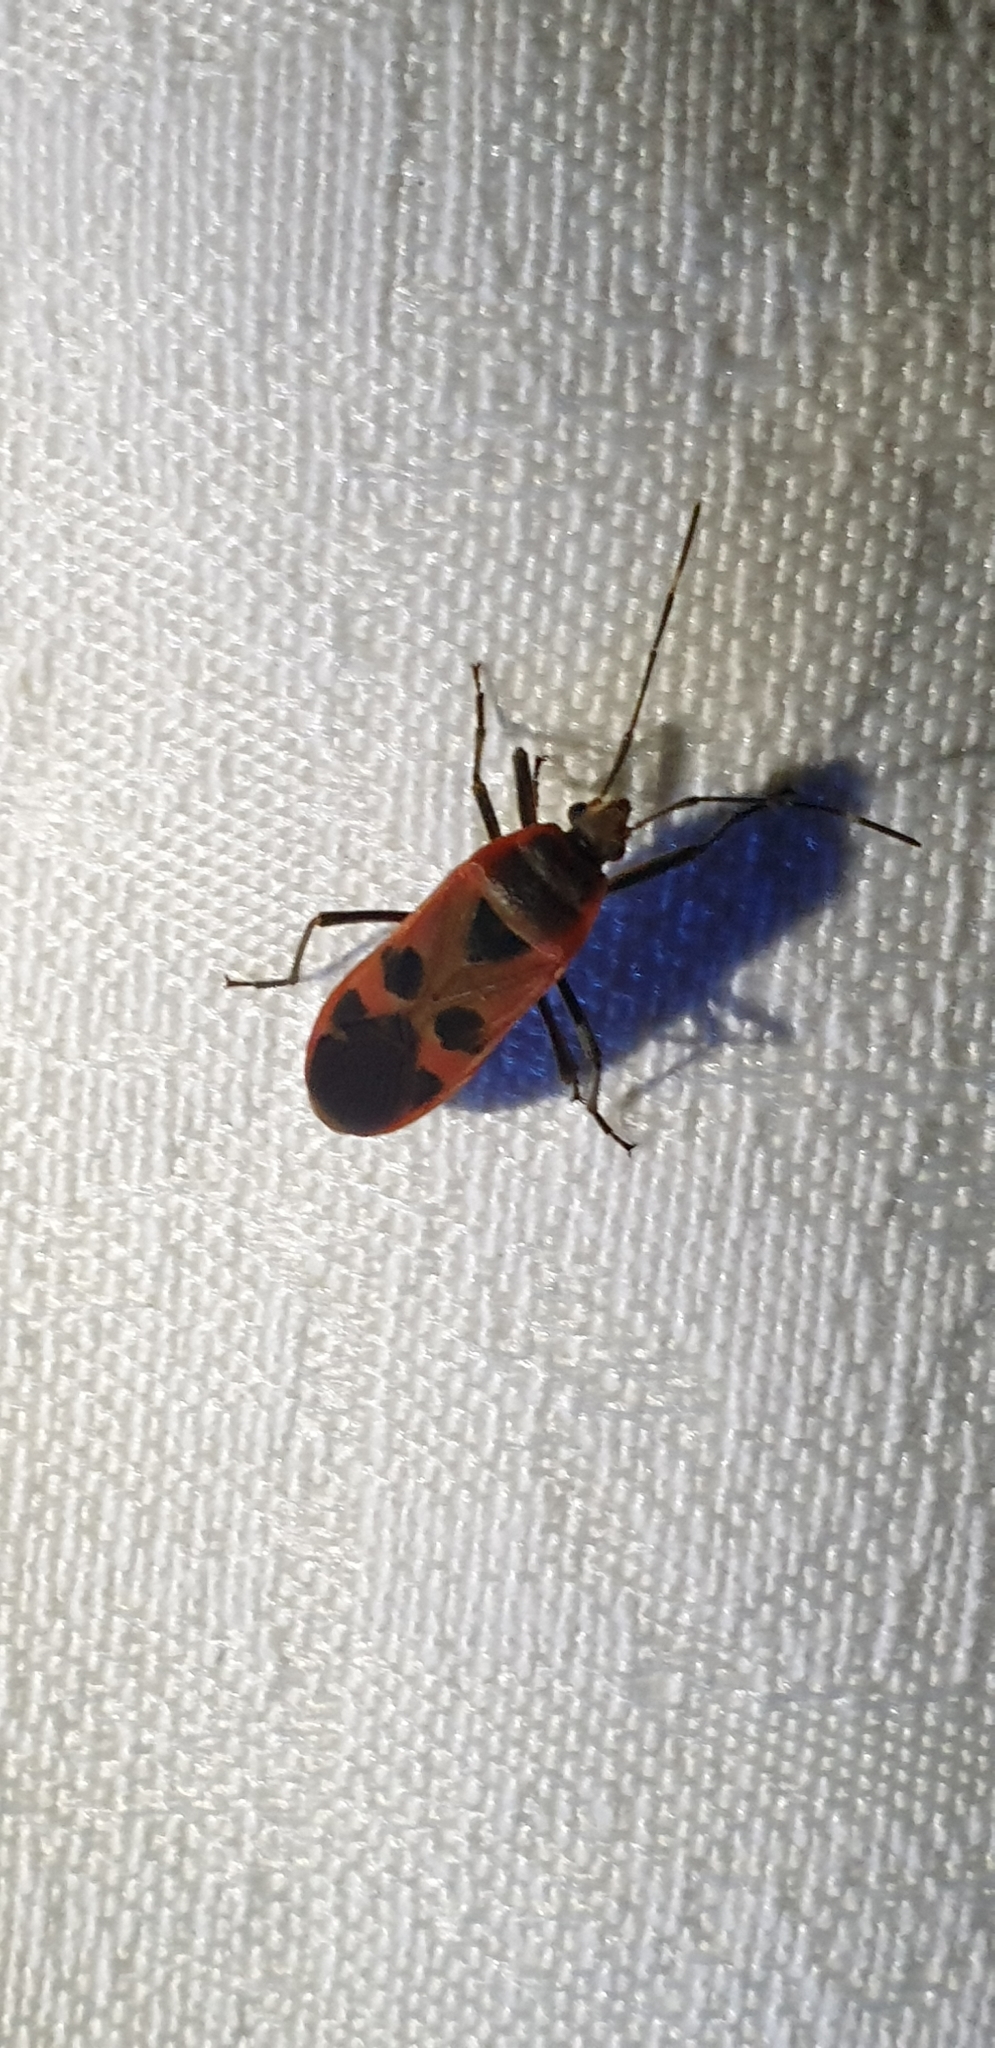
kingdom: Animalia
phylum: Arthropoda
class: Insecta
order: Hemiptera
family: Largidae
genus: Physopelta
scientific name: Physopelta gutta
